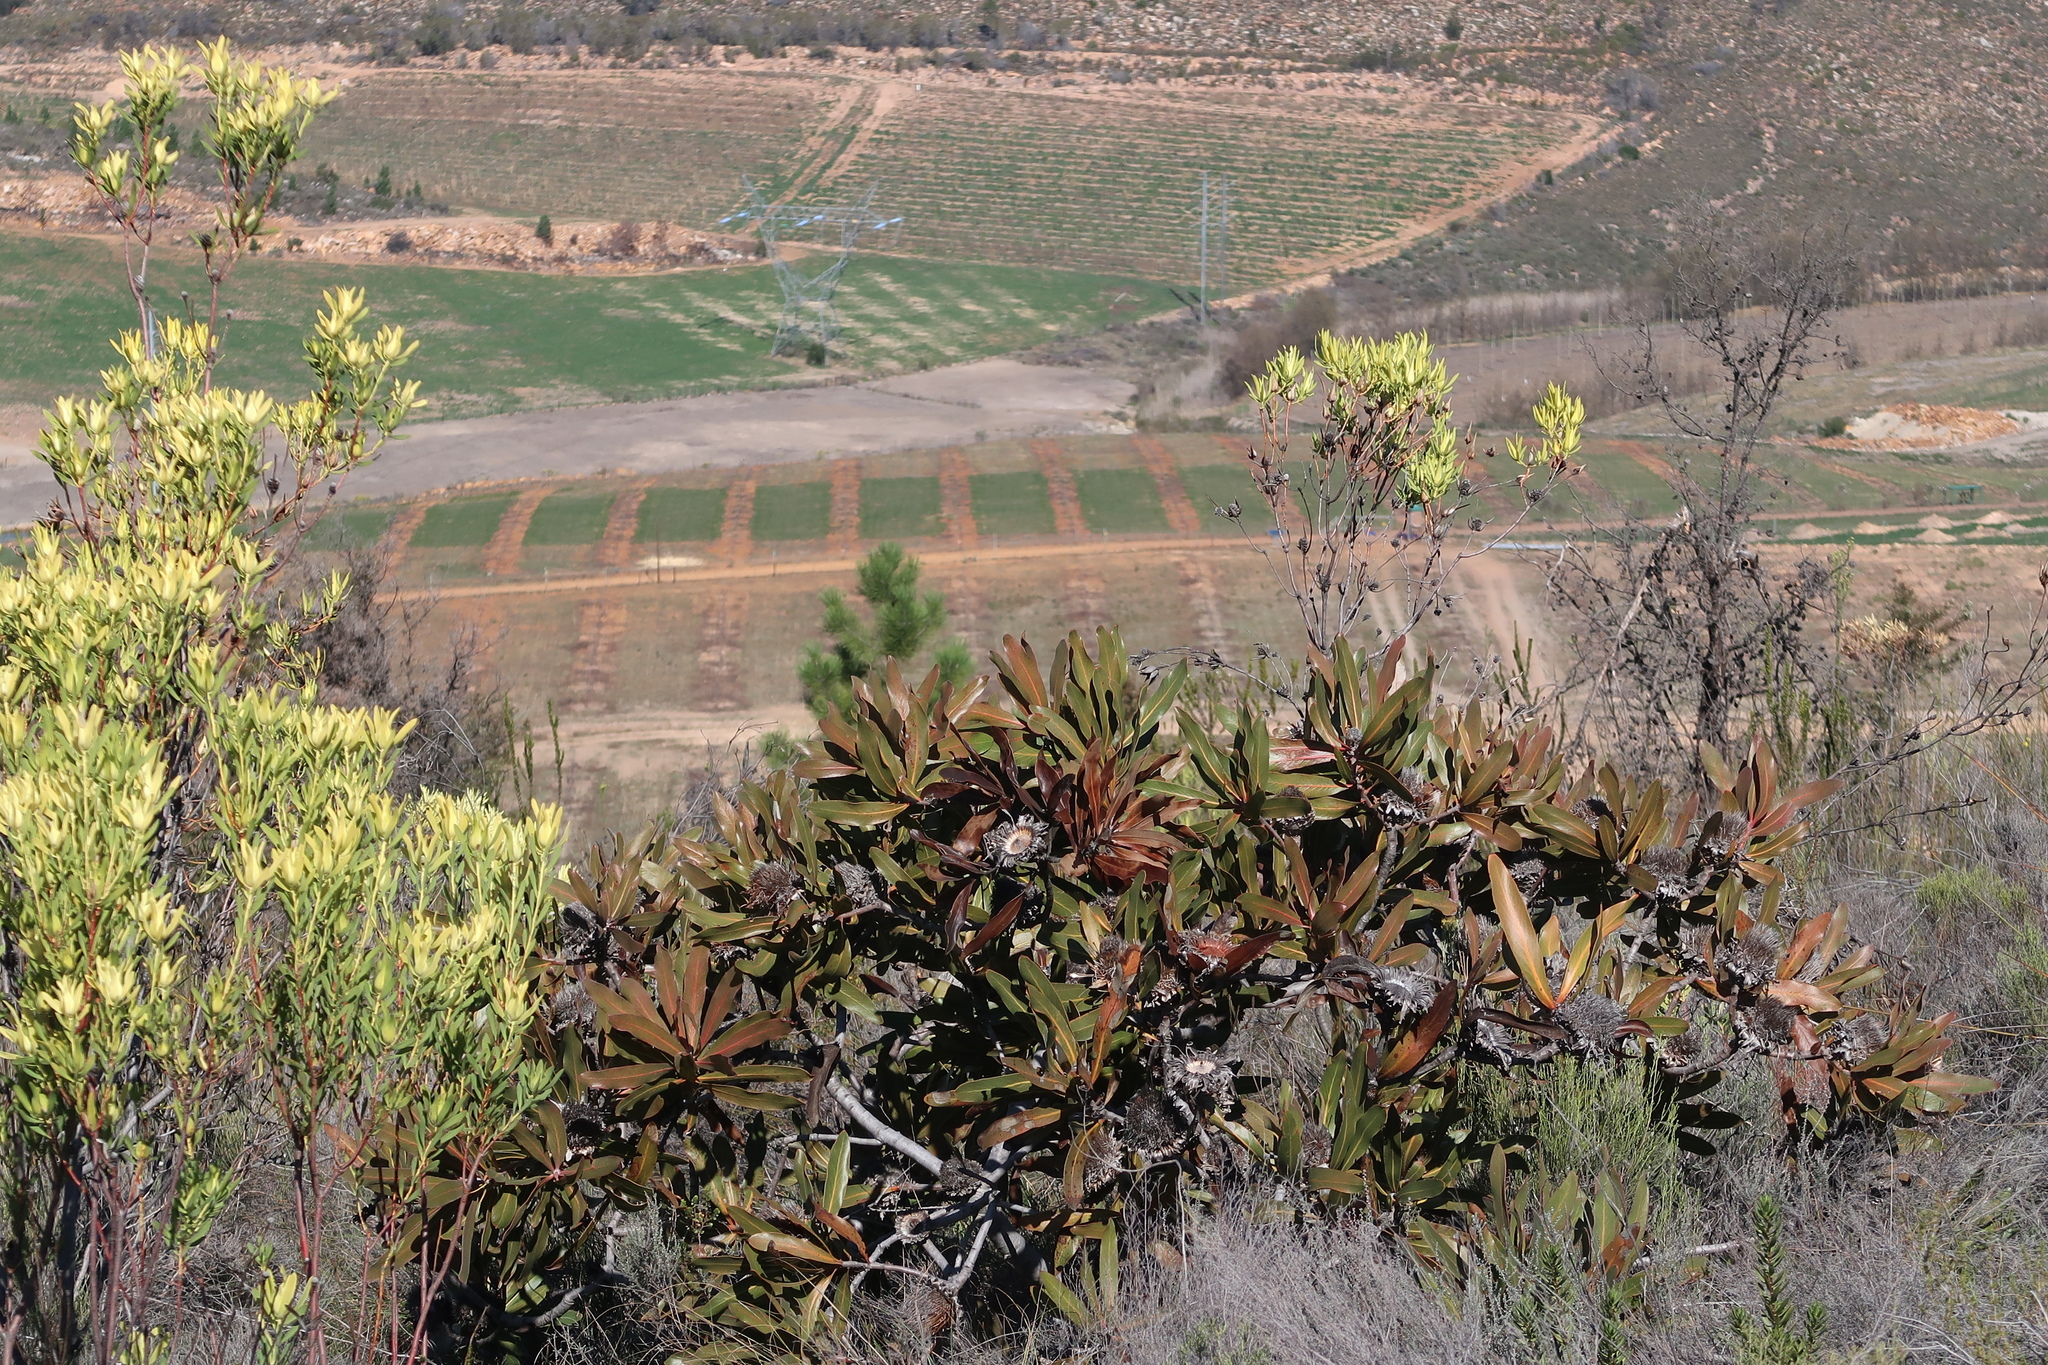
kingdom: Plantae
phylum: Tracheophyta
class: Magnoliopsida
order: Proteales
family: Proteaceae
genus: Protea
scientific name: Protea lorifolia
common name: Strap-leaved protea
